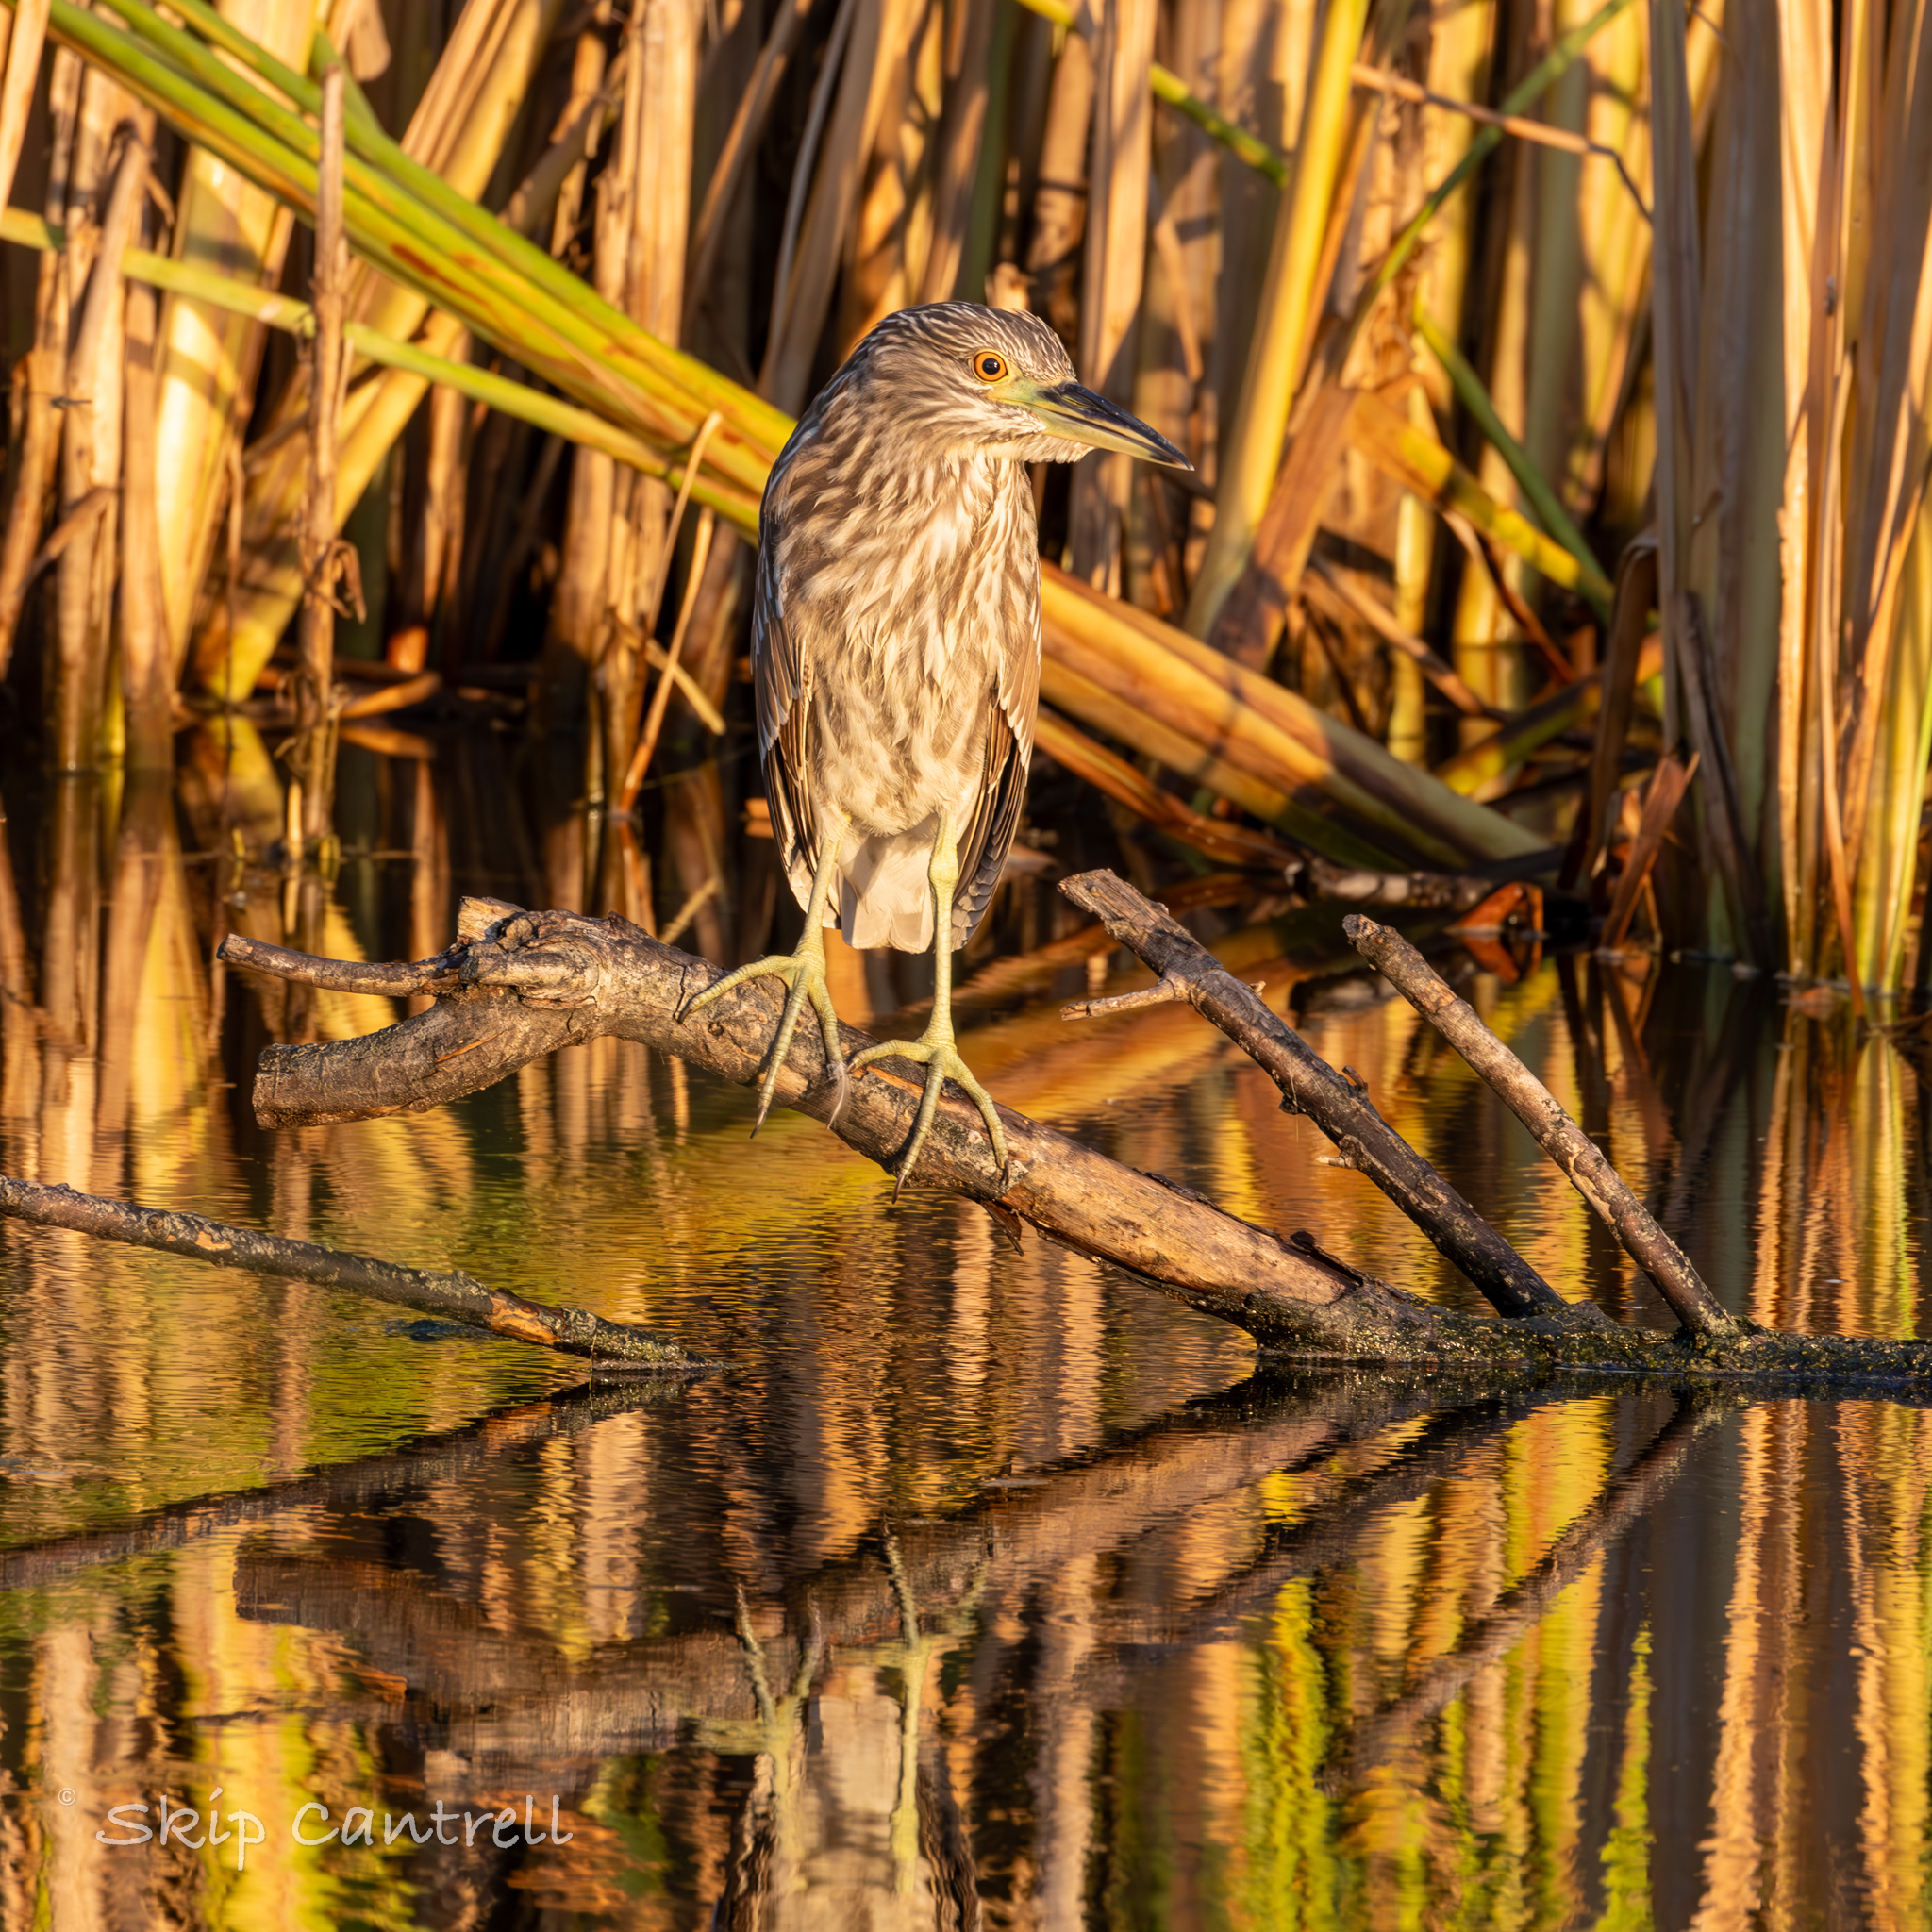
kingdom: Animalia
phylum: Chordata
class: Aves
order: Pelecaniformes
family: Ardeidae
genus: Nycticorax
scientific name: Nycticorax nycticorax
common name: Black-crowned night heron
